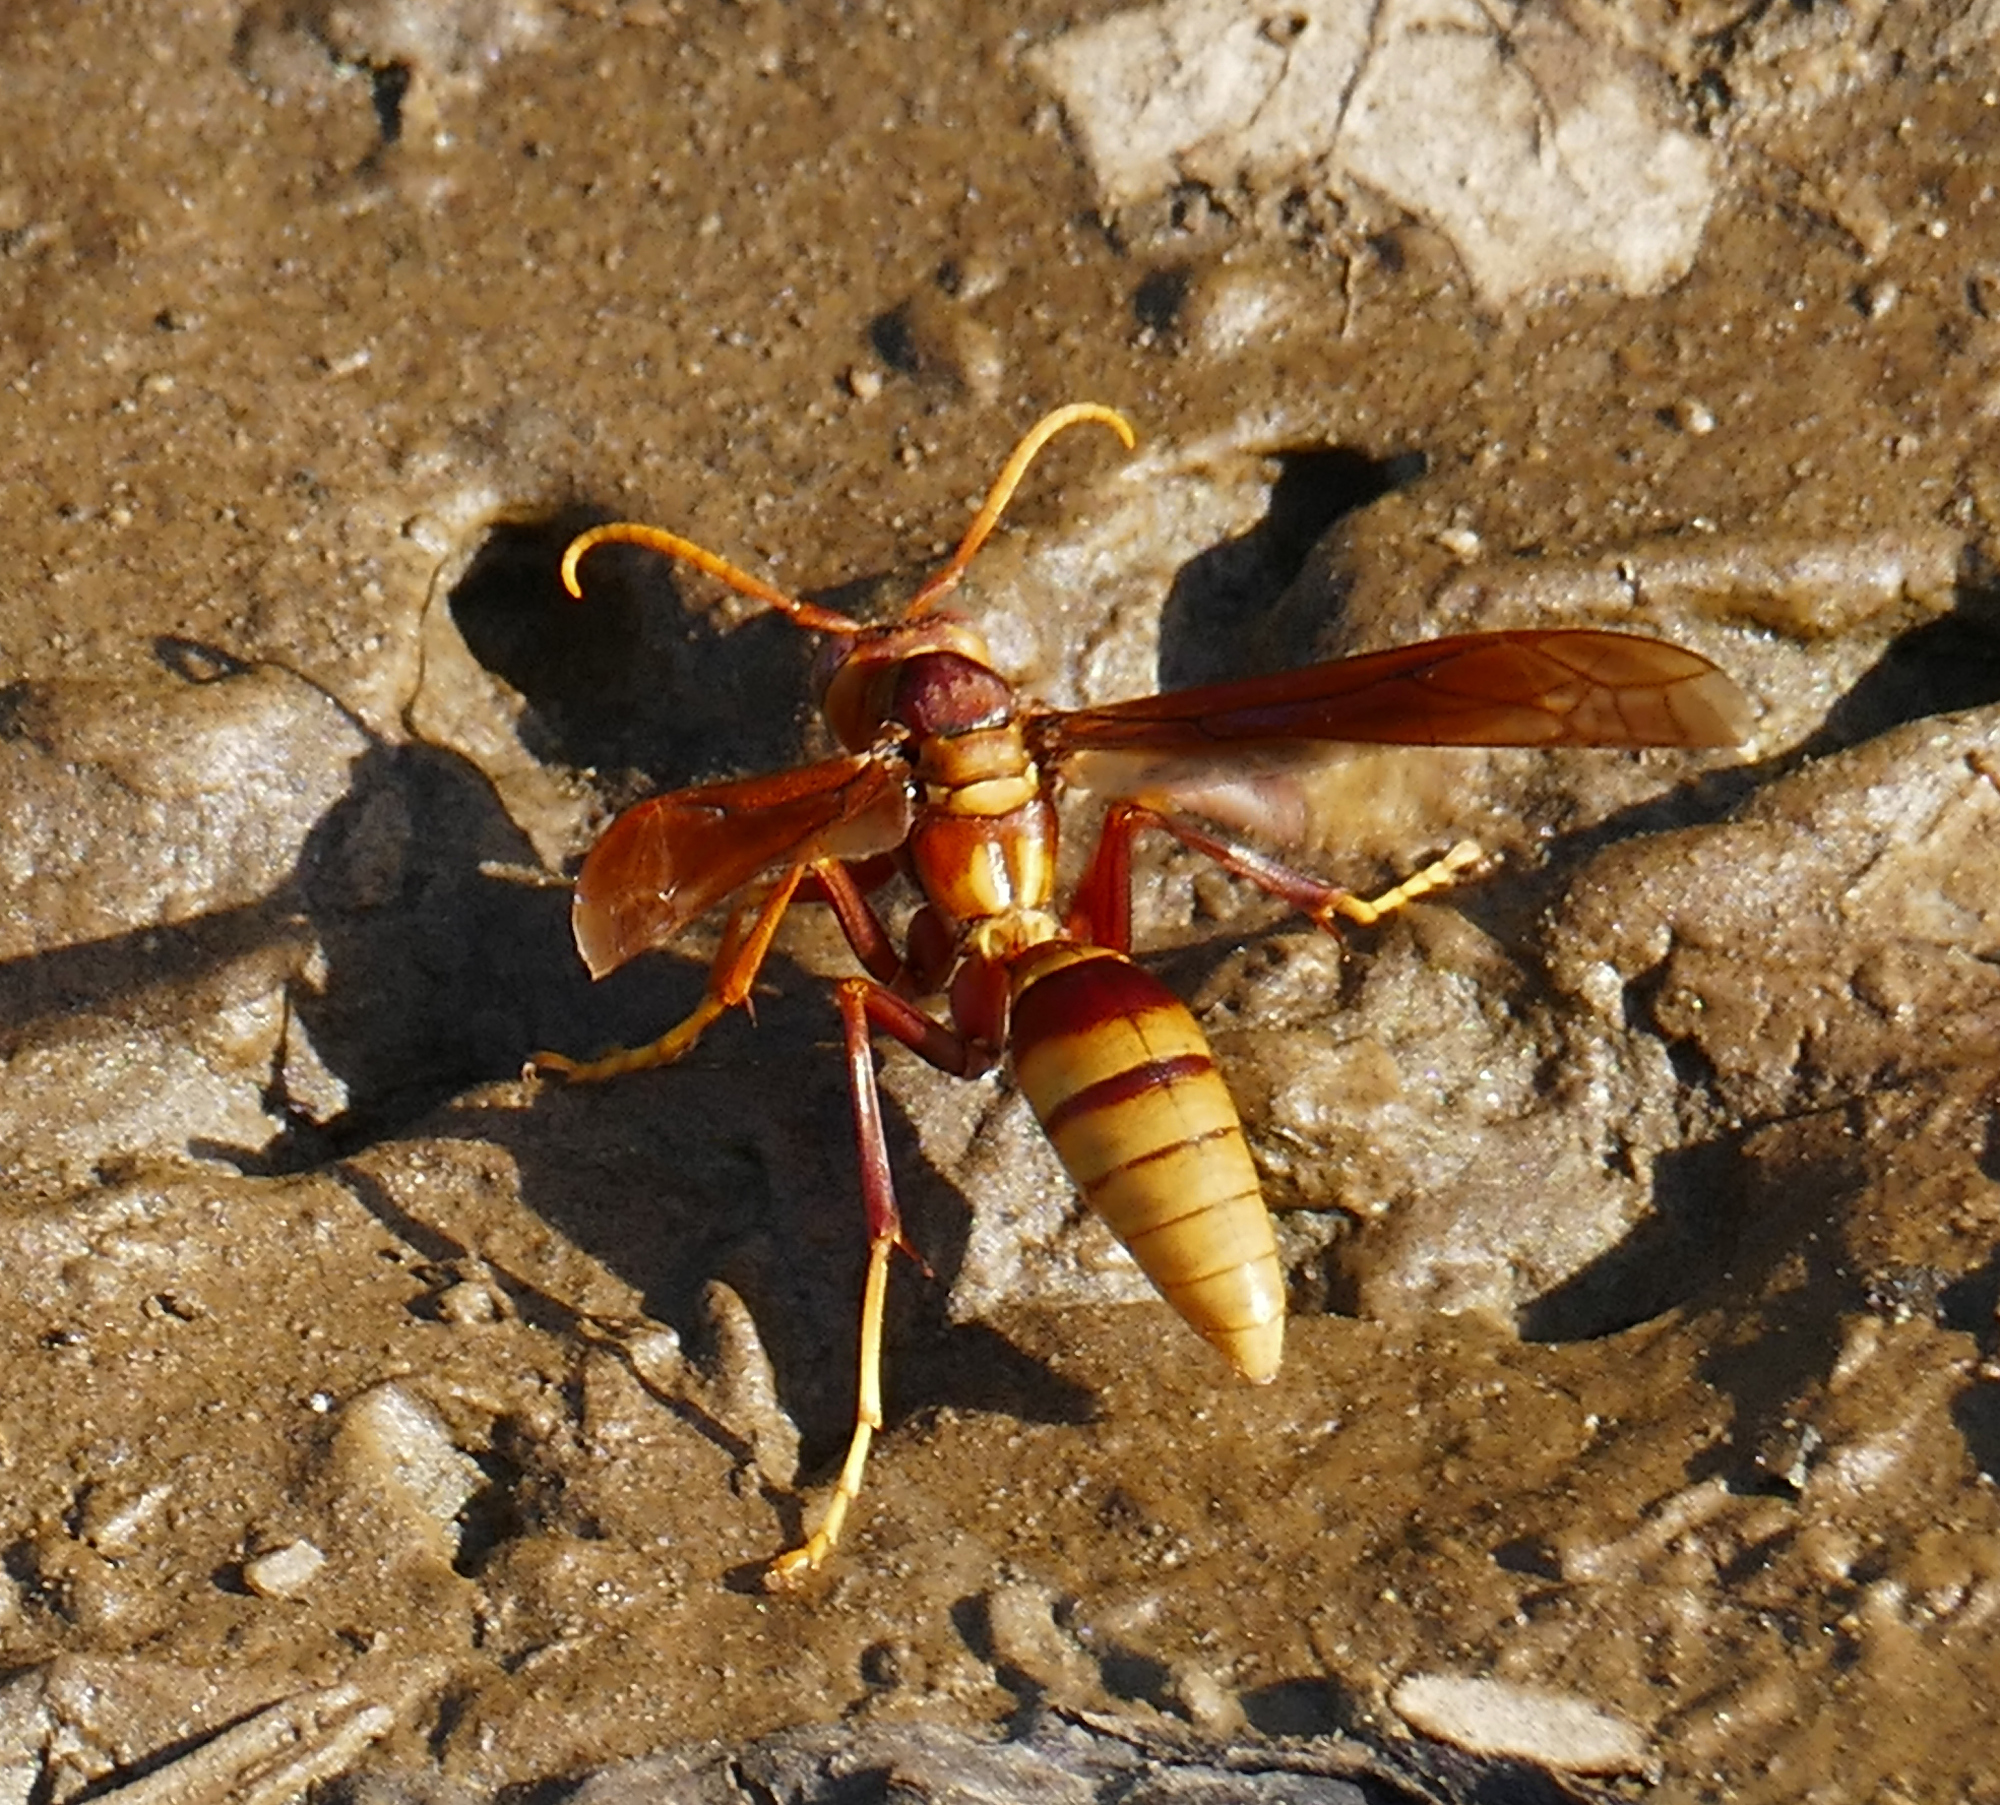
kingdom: Animalia
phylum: Arthropoda
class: Insecta
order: Hymenoptera
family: Eumenidae
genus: Polistes
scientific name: Polistes major
